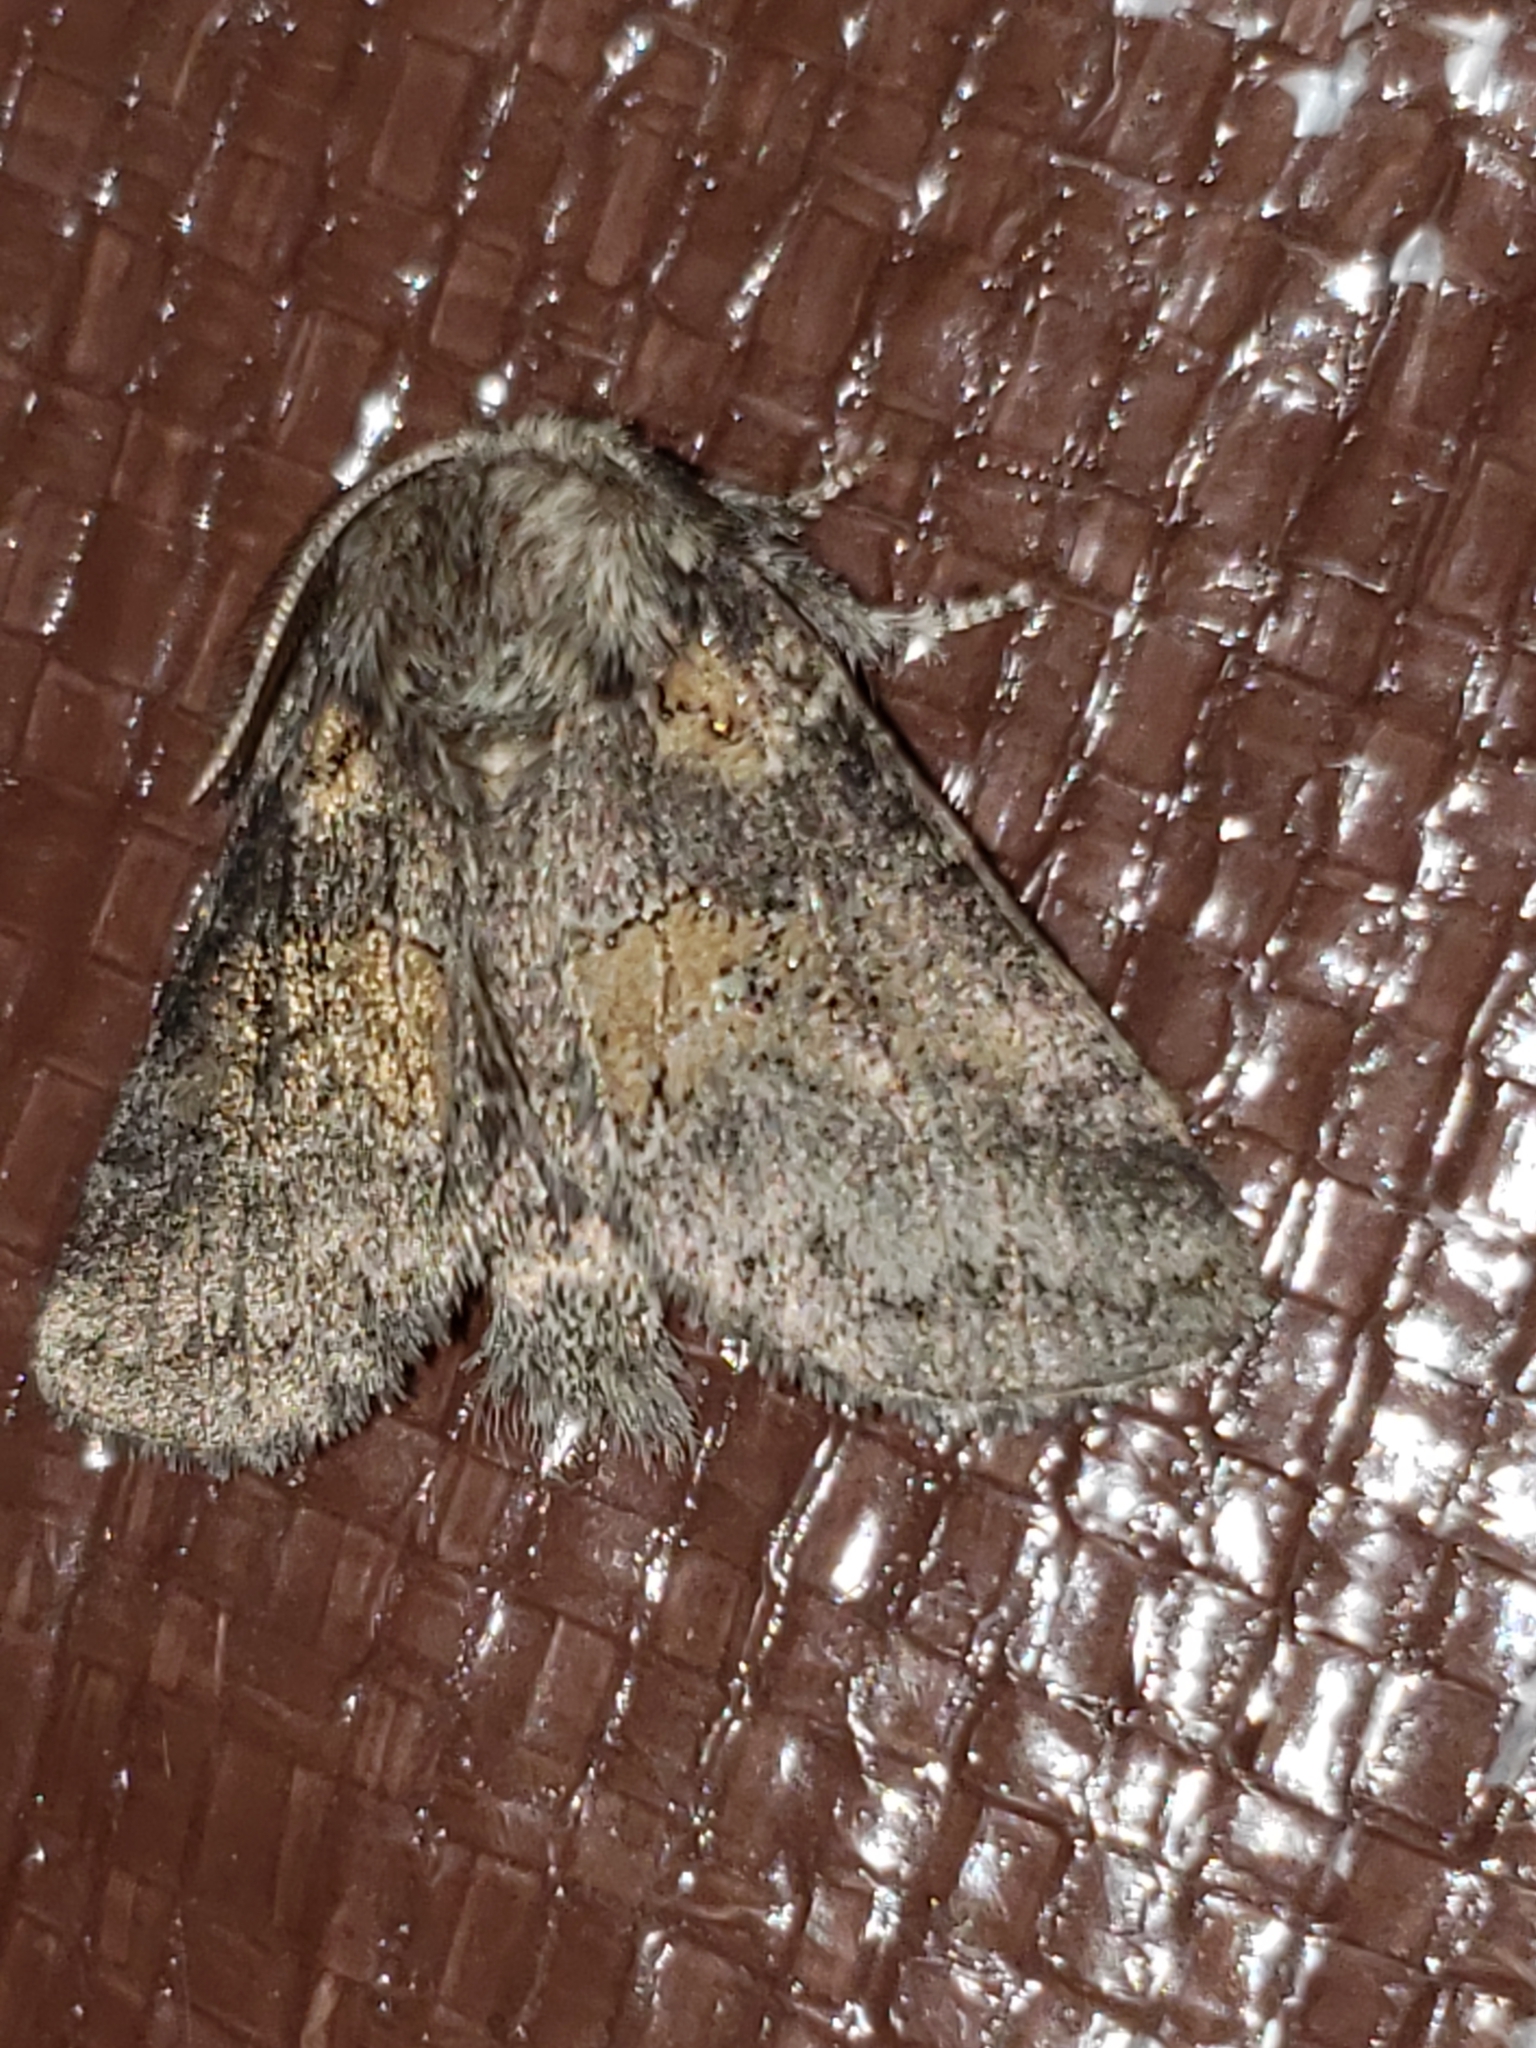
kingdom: Animalia
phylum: Arthropoda
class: Insecta
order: Lepidoptera
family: Notodontidae
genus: Gluphisia
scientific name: Gluphisia septentrionis
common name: Common gluphisia
